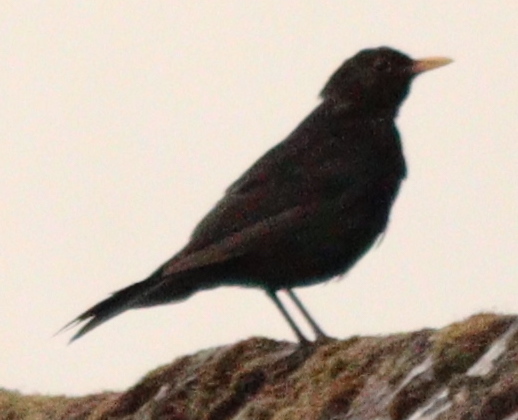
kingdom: Animalia
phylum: Chordata
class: Aves
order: Passeriformes
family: Turdidae
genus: Turdus
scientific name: Turdus merula
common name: Common blackbird
